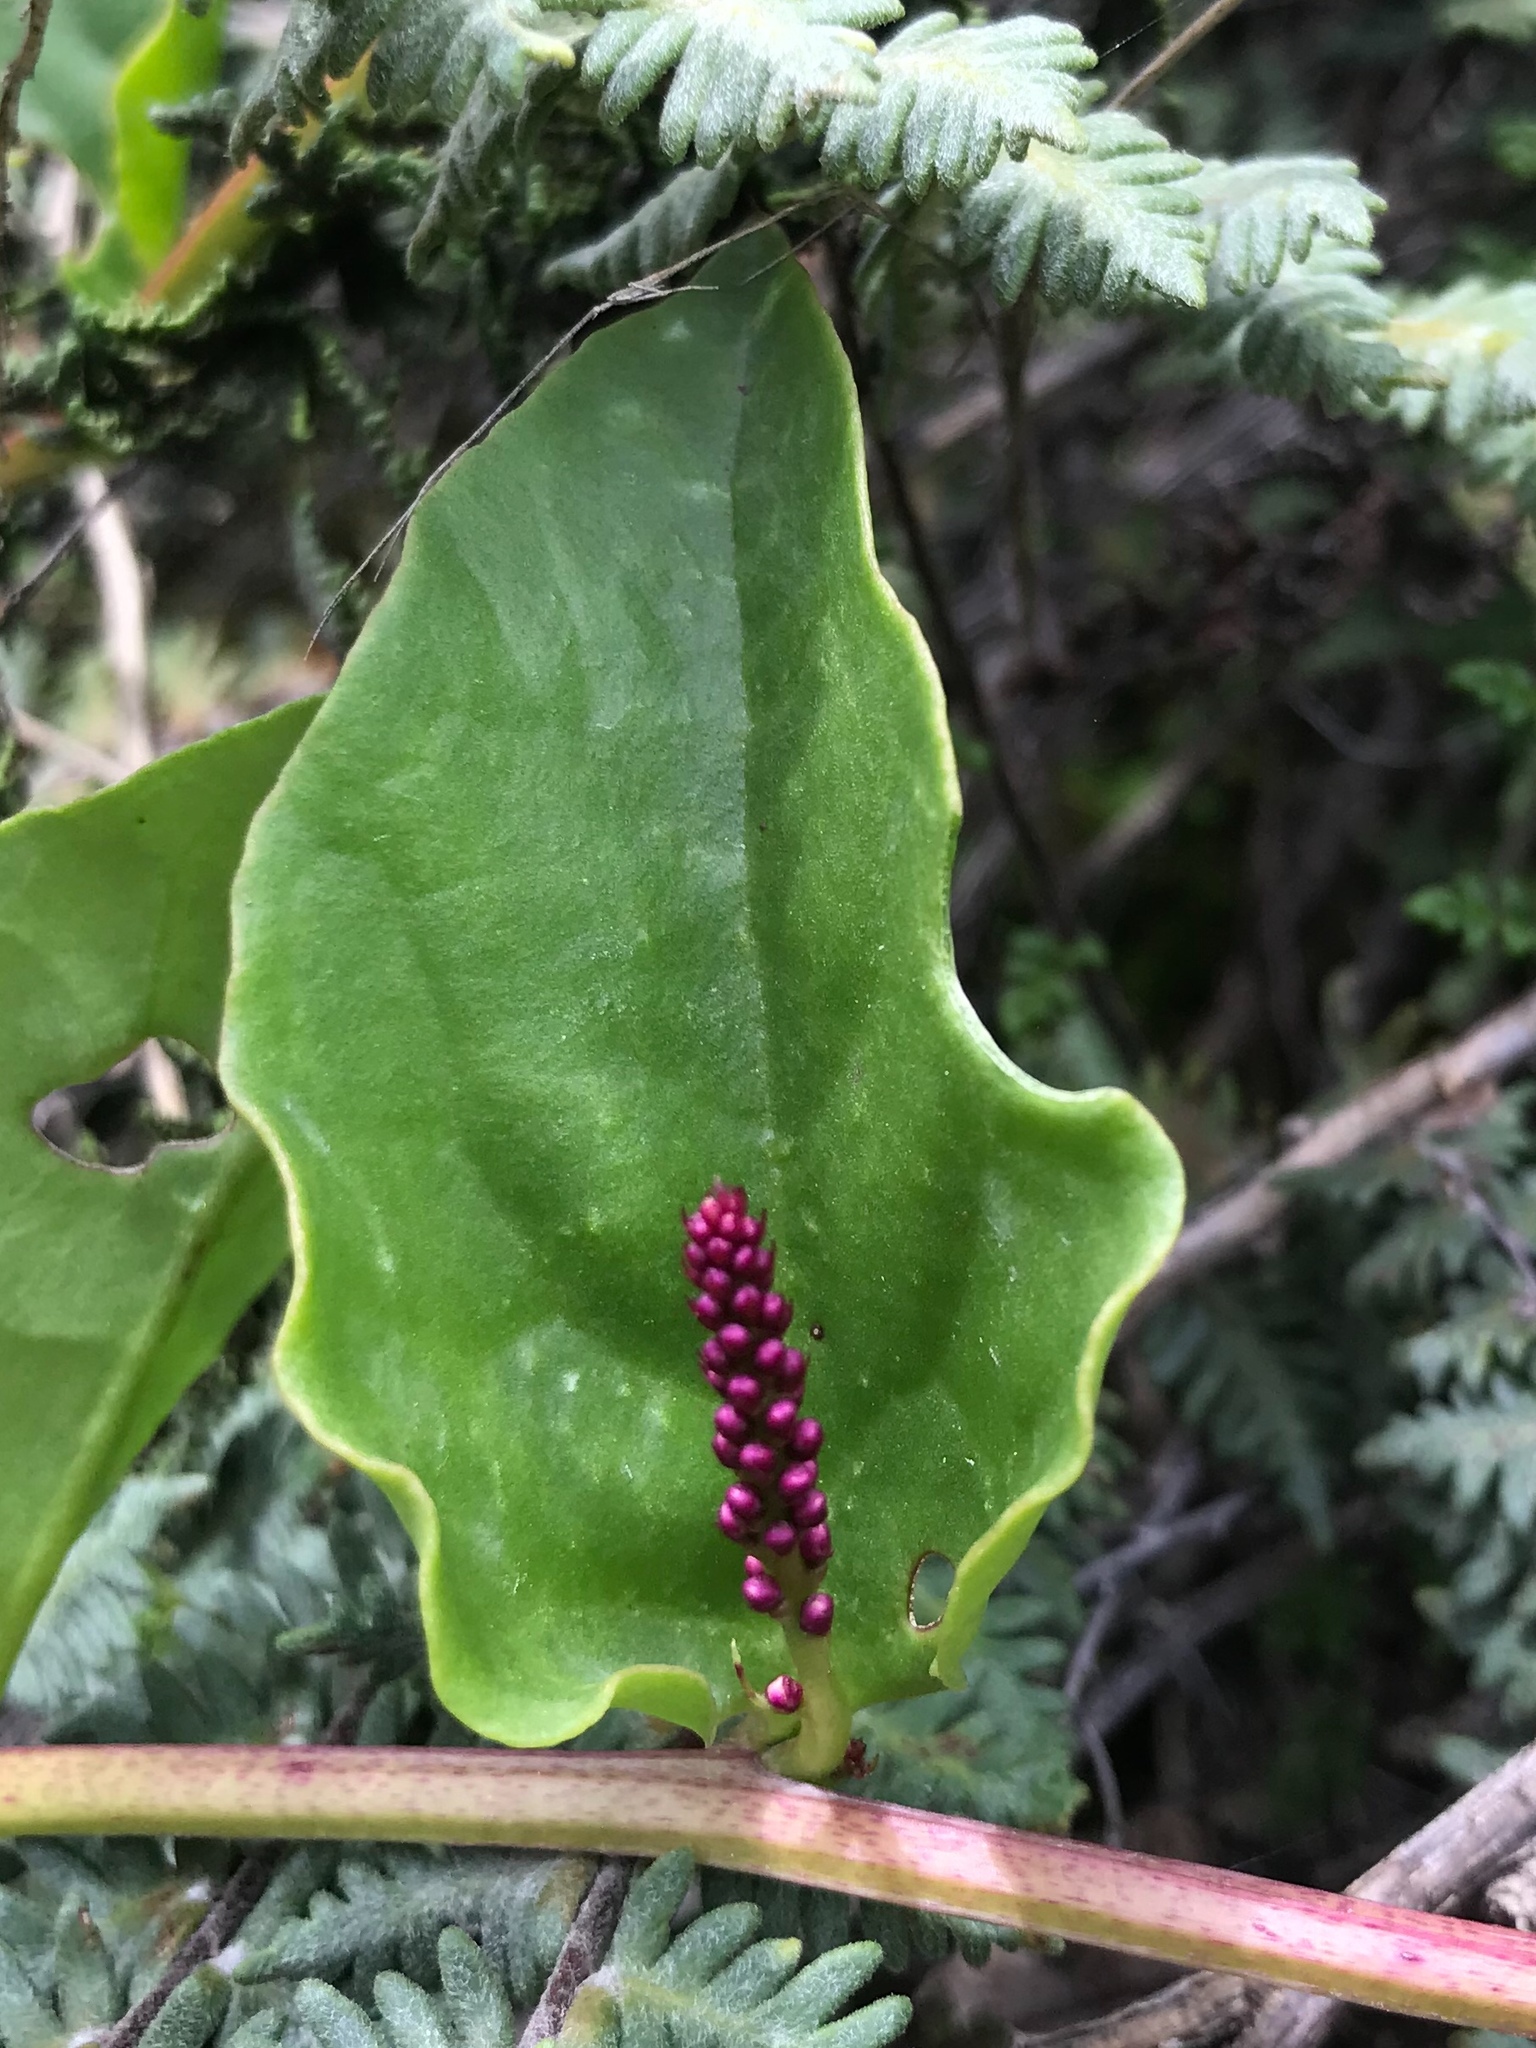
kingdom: Plantae
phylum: Tracheophyta
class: Magnoliopsida
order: Caryophyllales
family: Basellaceae
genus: Anredera
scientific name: Anredera diffusa
